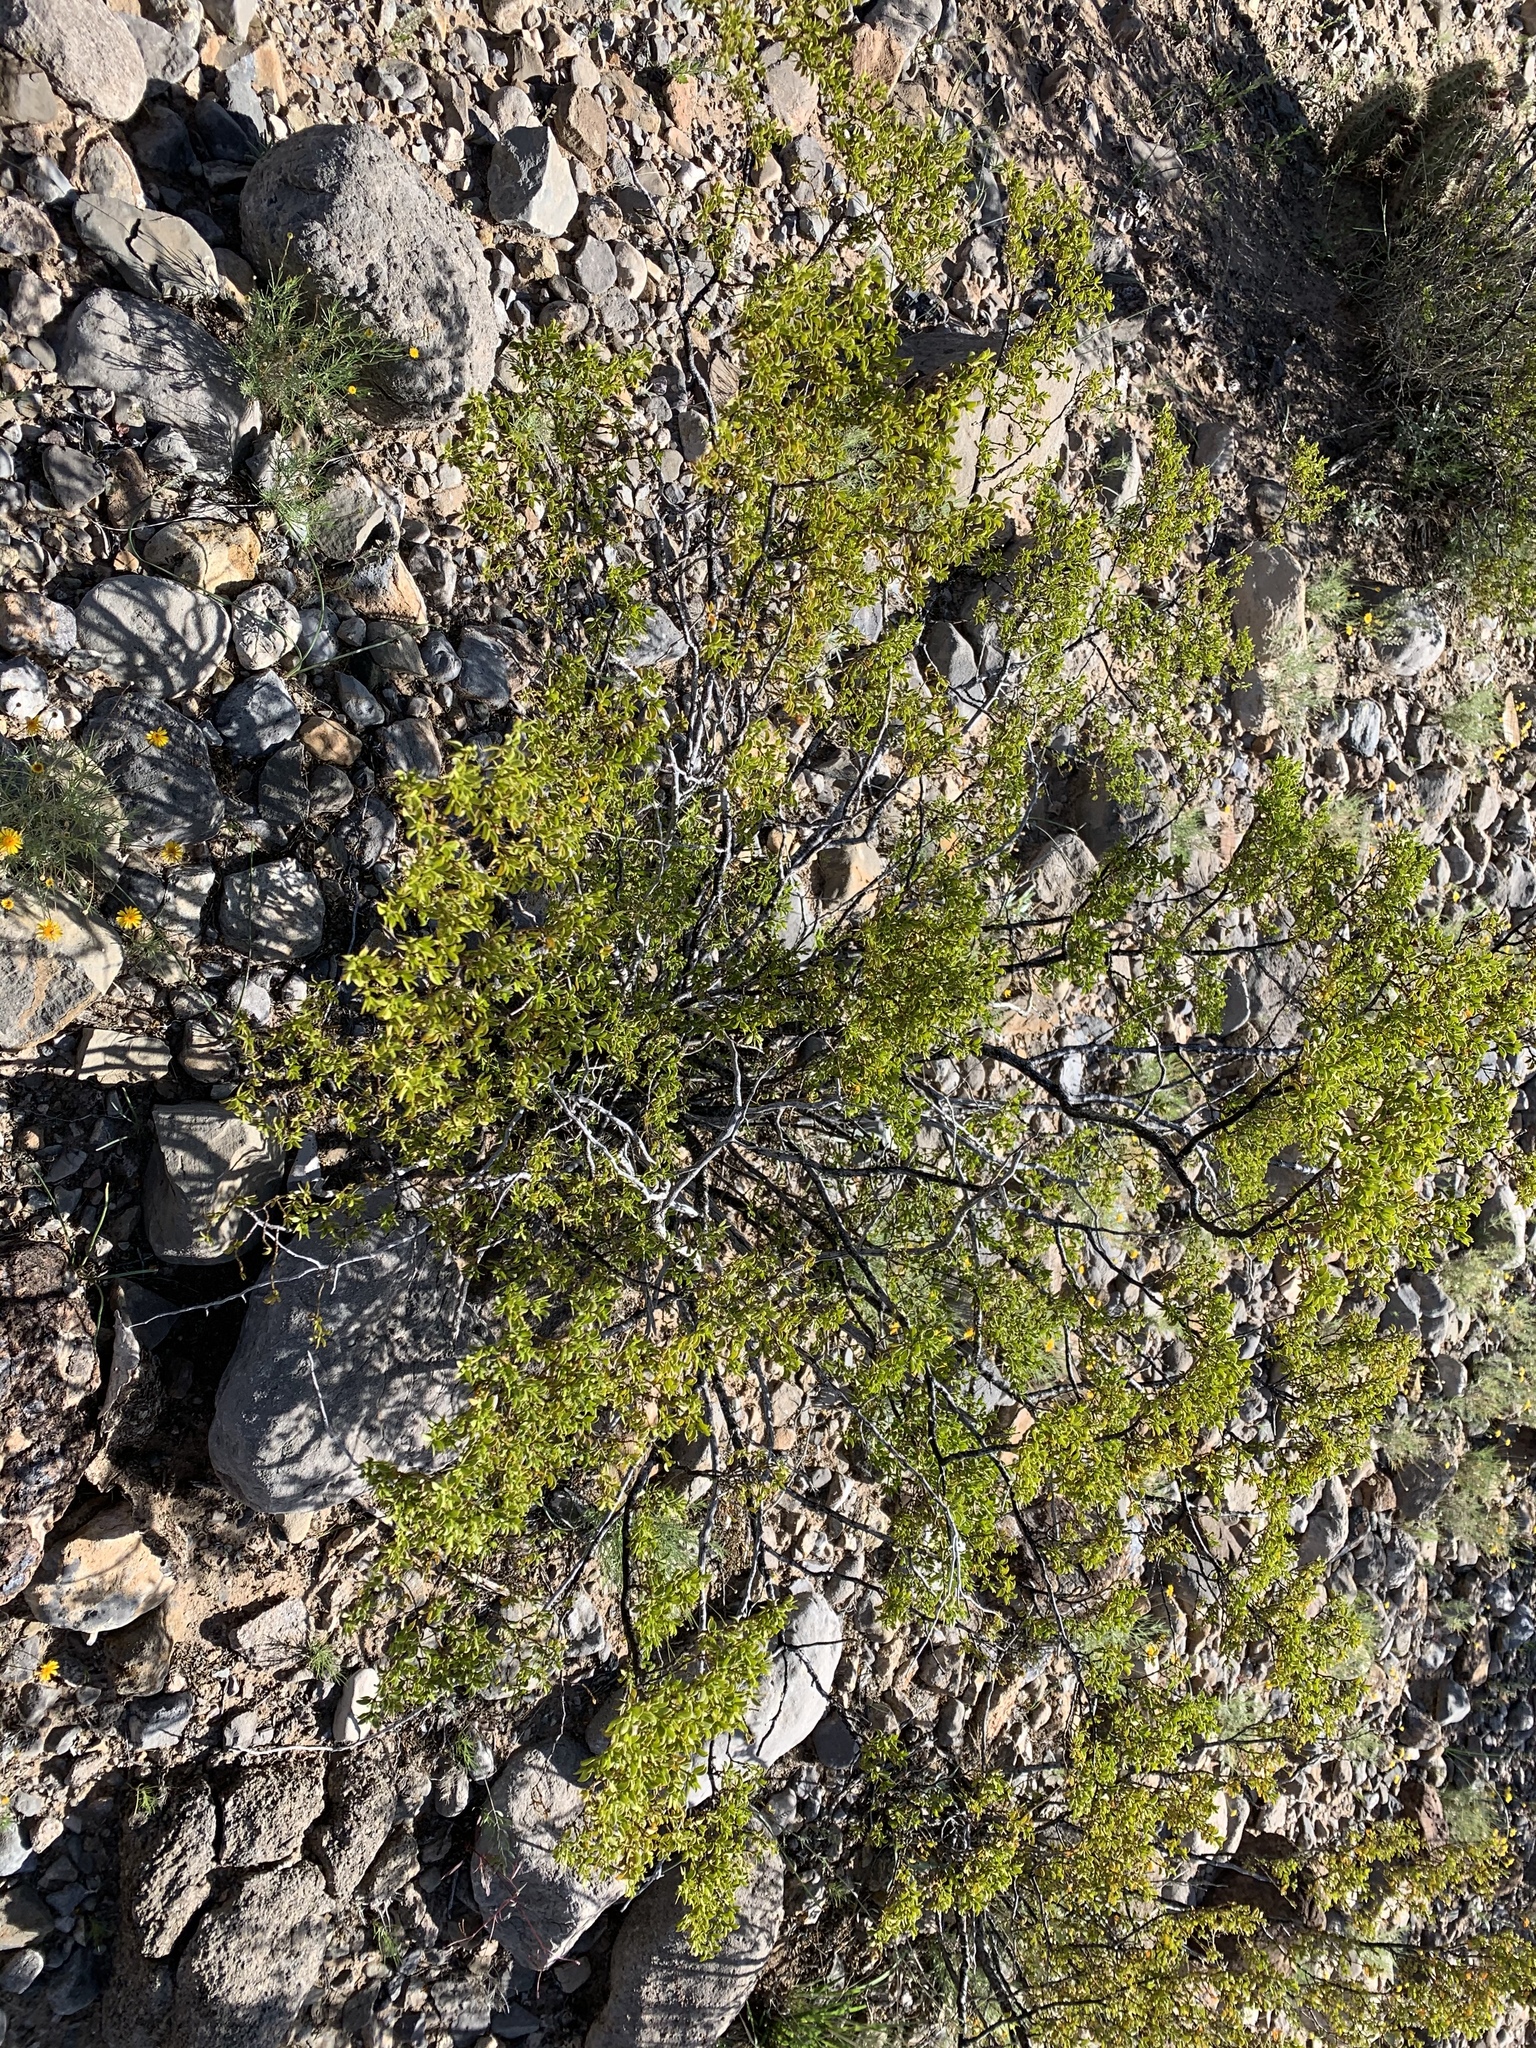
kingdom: Plantae
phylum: Tracheophyta
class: Magnoliopsida
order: Zygophyllales
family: Zygophyllaceae
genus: Larrea
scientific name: Larrea tridentata
